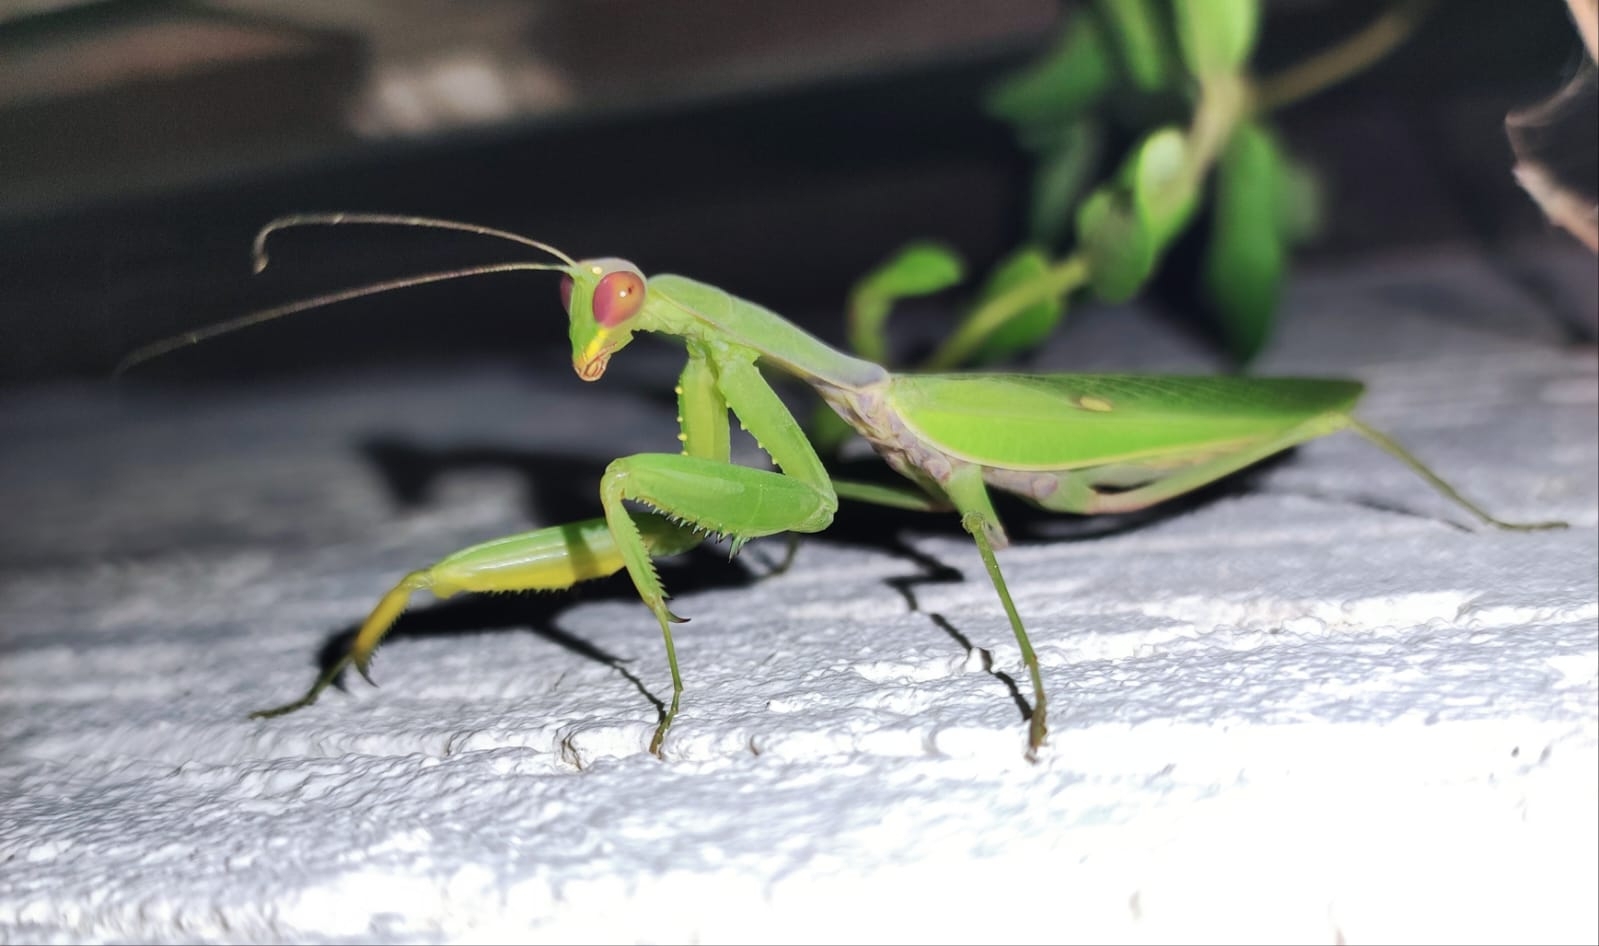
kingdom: Animalia
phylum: Arthropoda
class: Insecta
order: Mantodea
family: Mantidae
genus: Hierodula
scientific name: Hierodula transcaucasica
